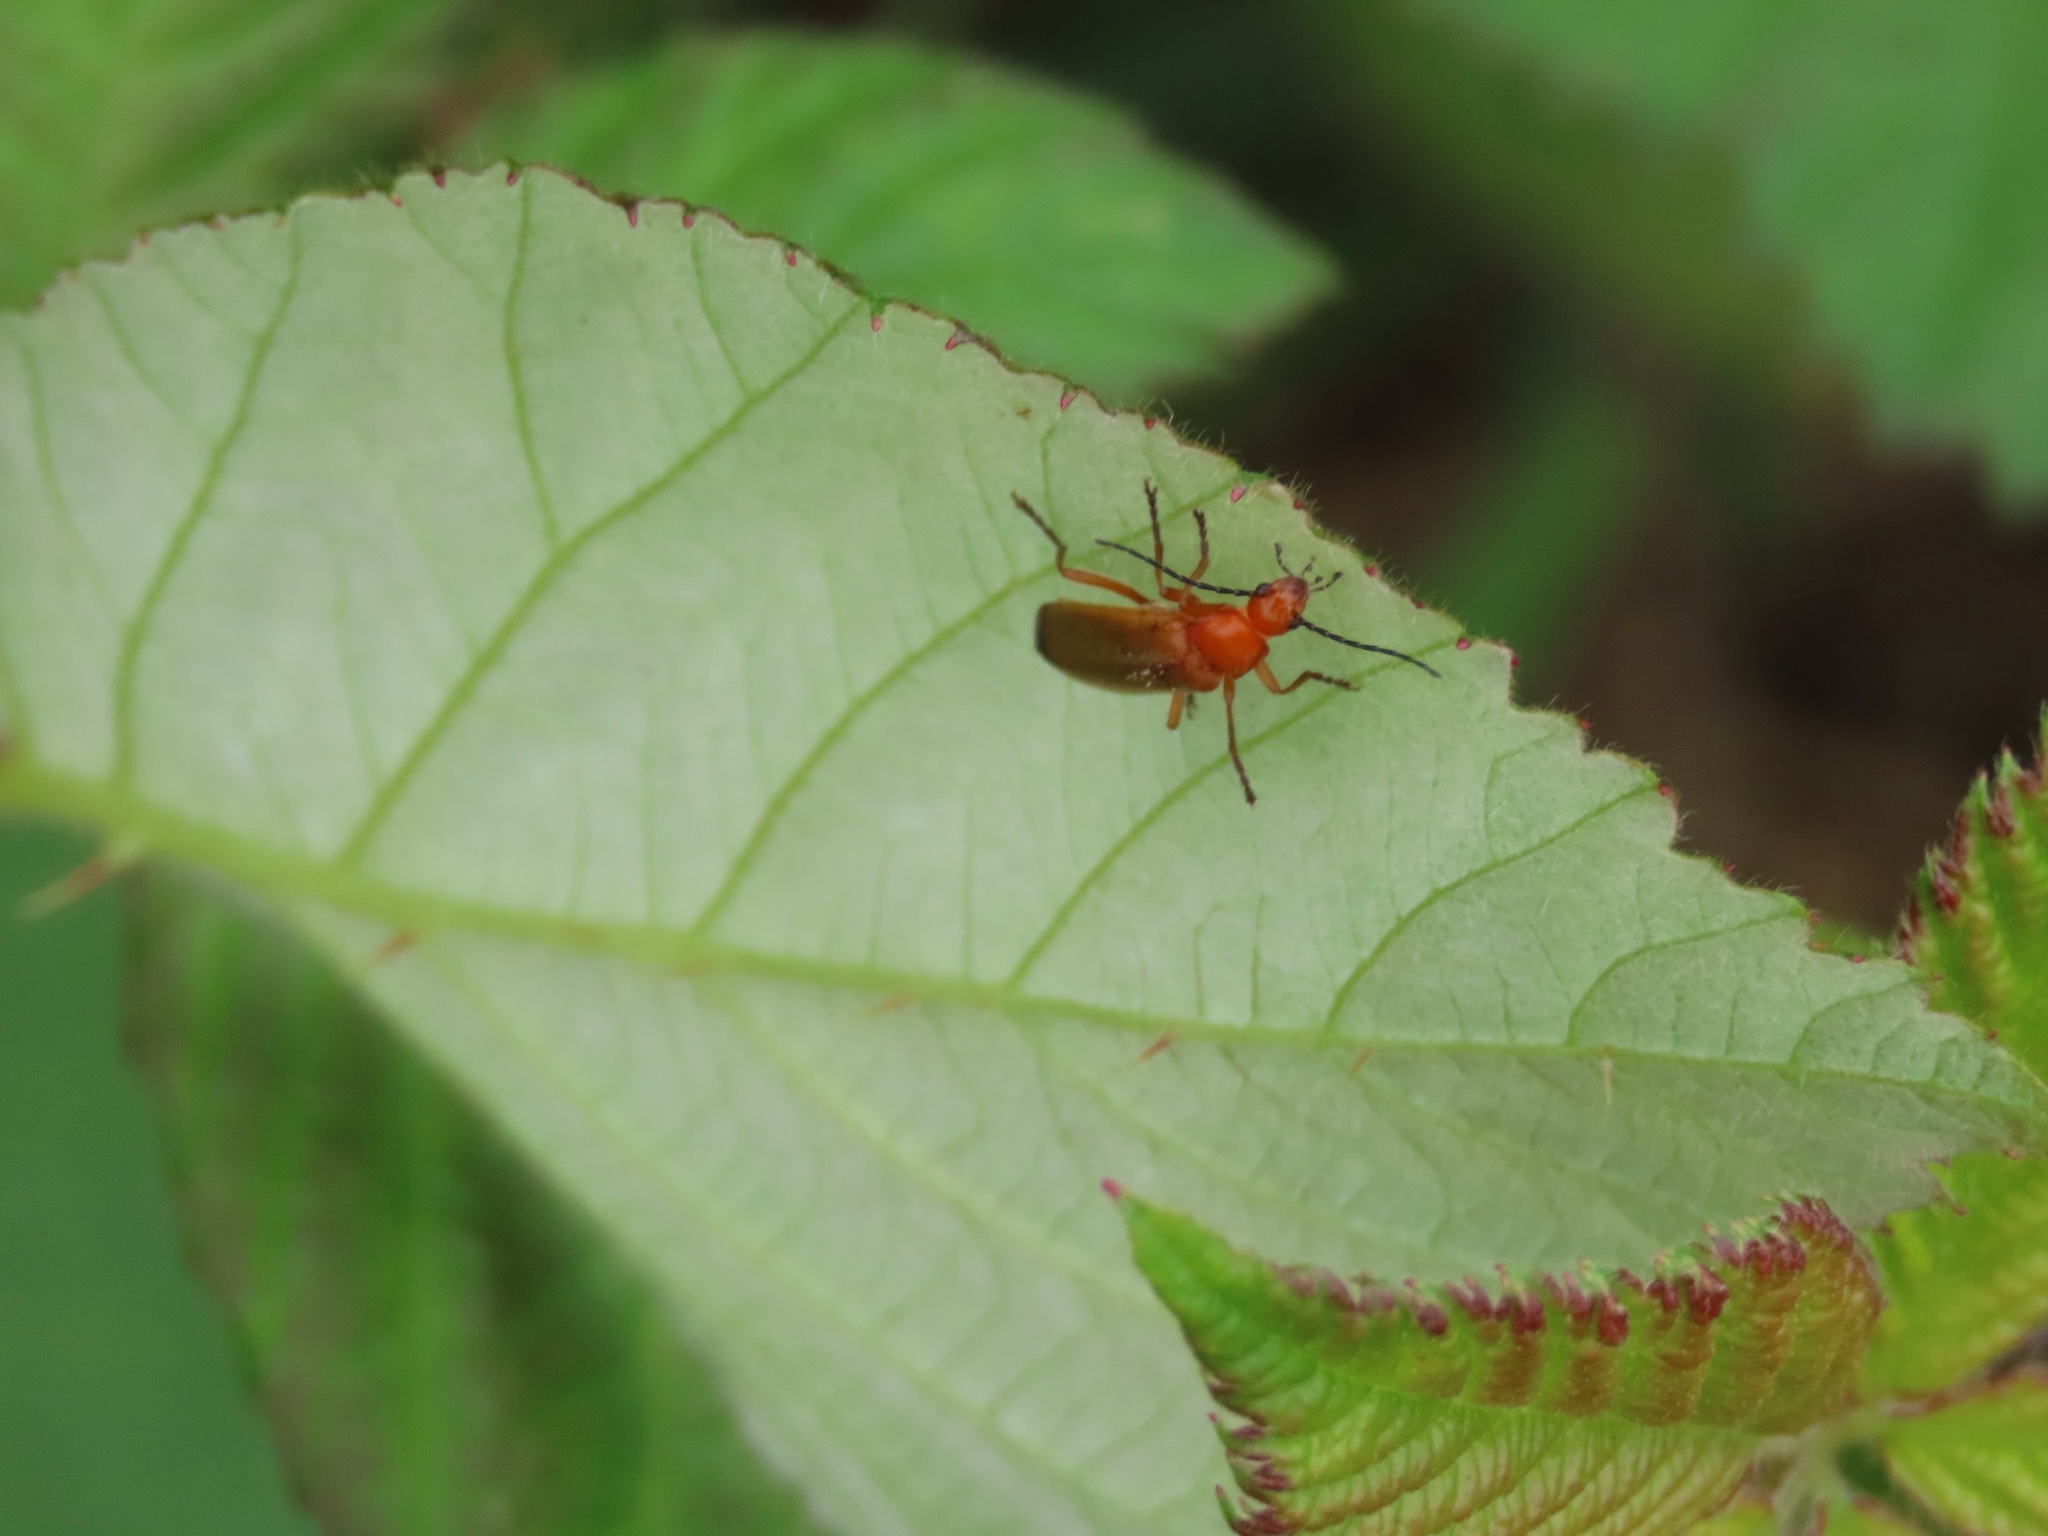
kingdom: Animalia
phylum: Arthropoda
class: Insecta
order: Coleoptera
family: Cantharidae
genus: Rhagonycha
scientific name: Rhagonycha fulva
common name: Common red soldier beetle
